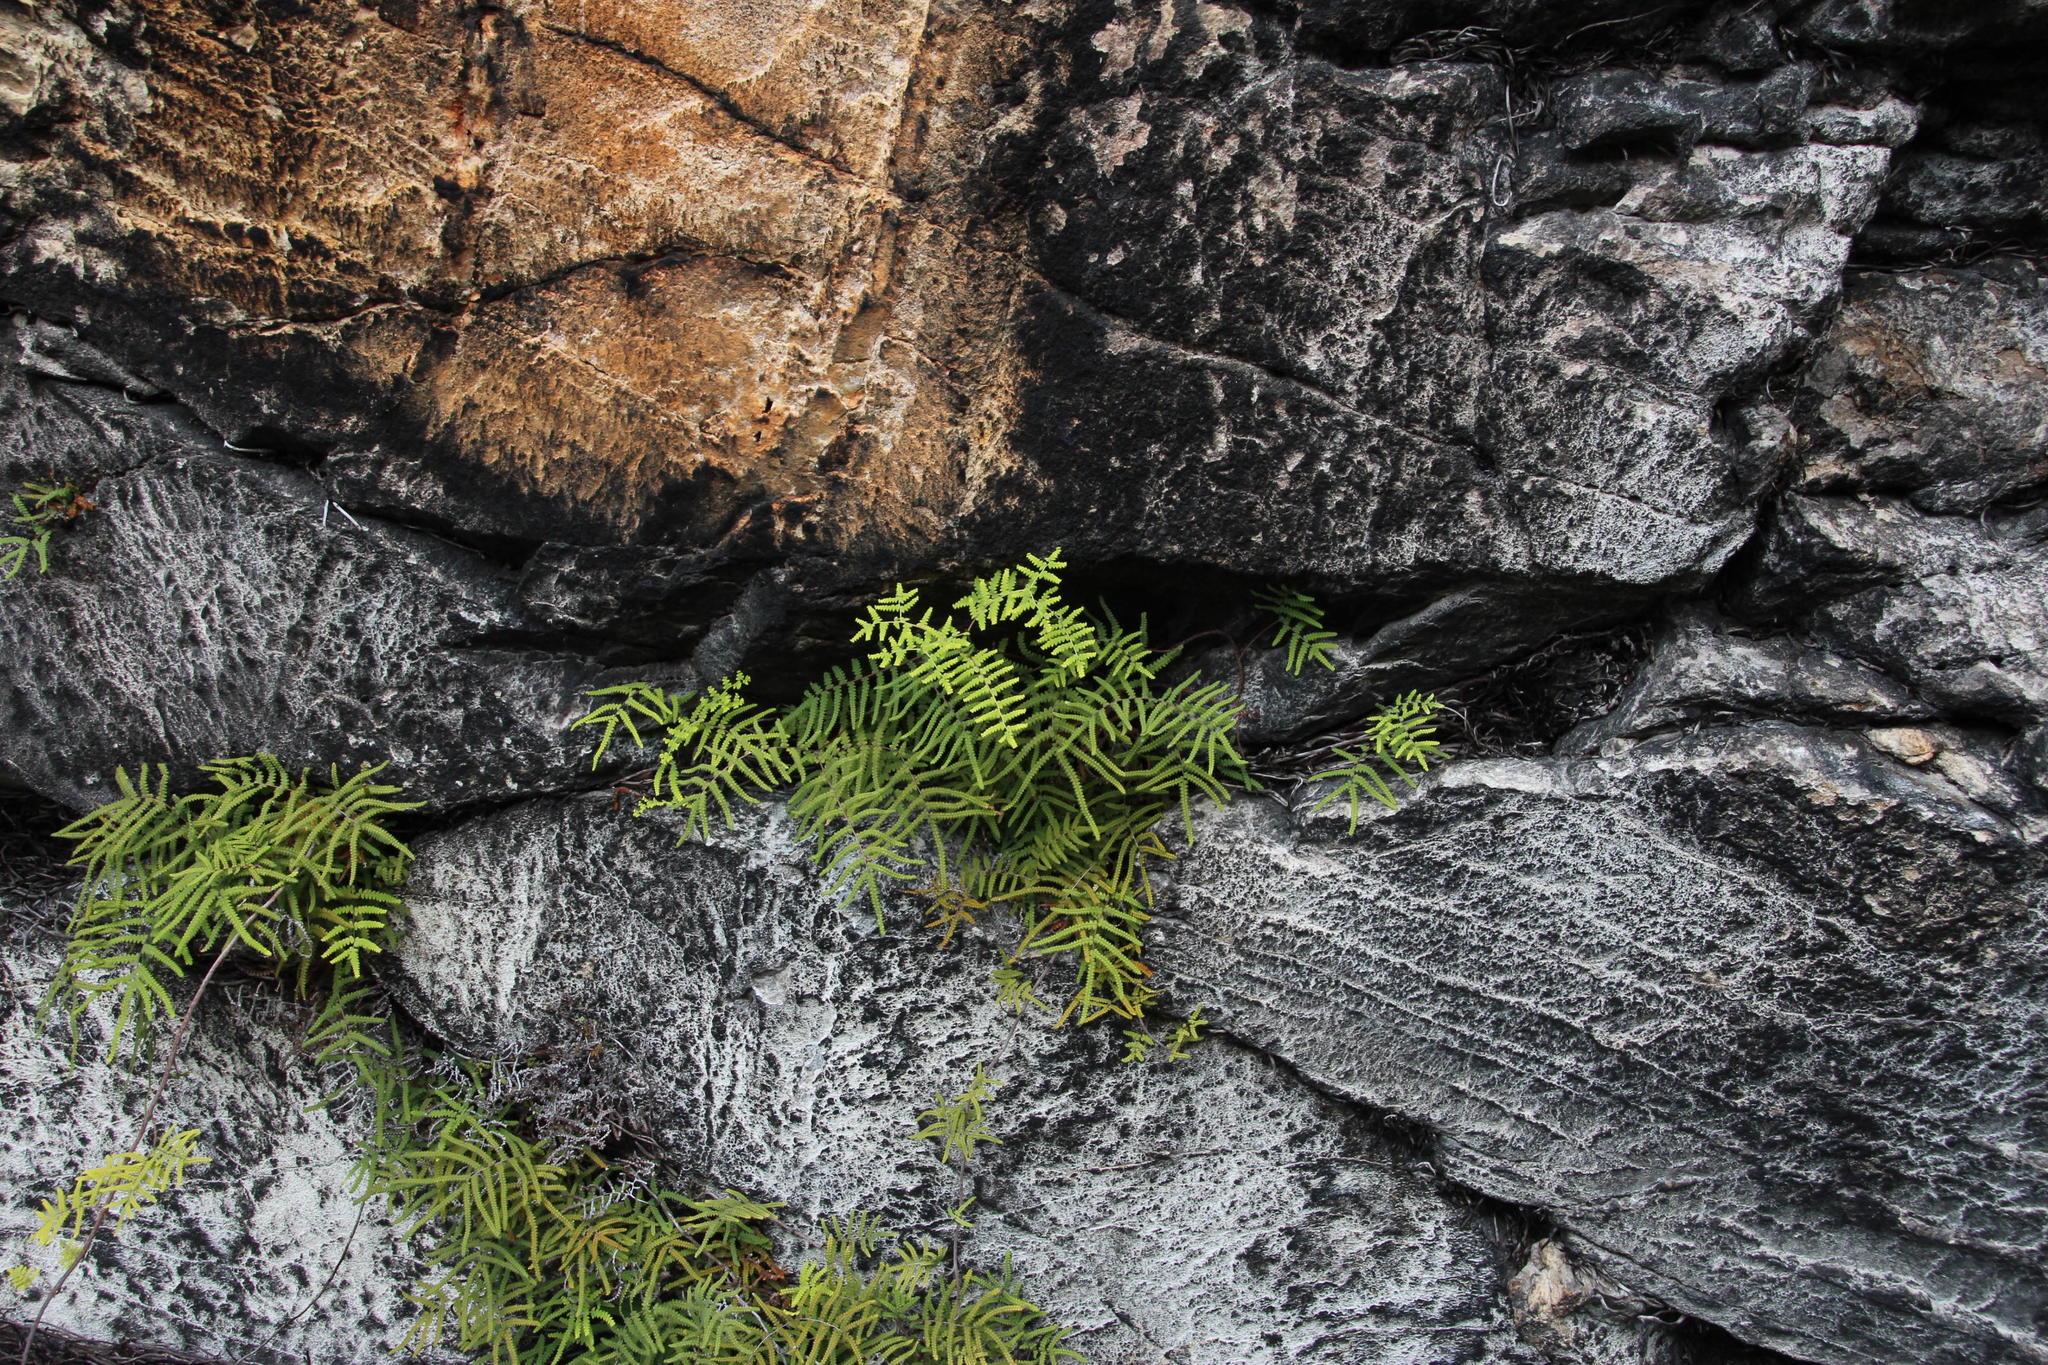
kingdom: Plantae
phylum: Tracheophyta
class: Polypodiopsida
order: Gleicheniales
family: Gleicheniaceae
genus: Gleichenia
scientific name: Gleichenia polypodioides
